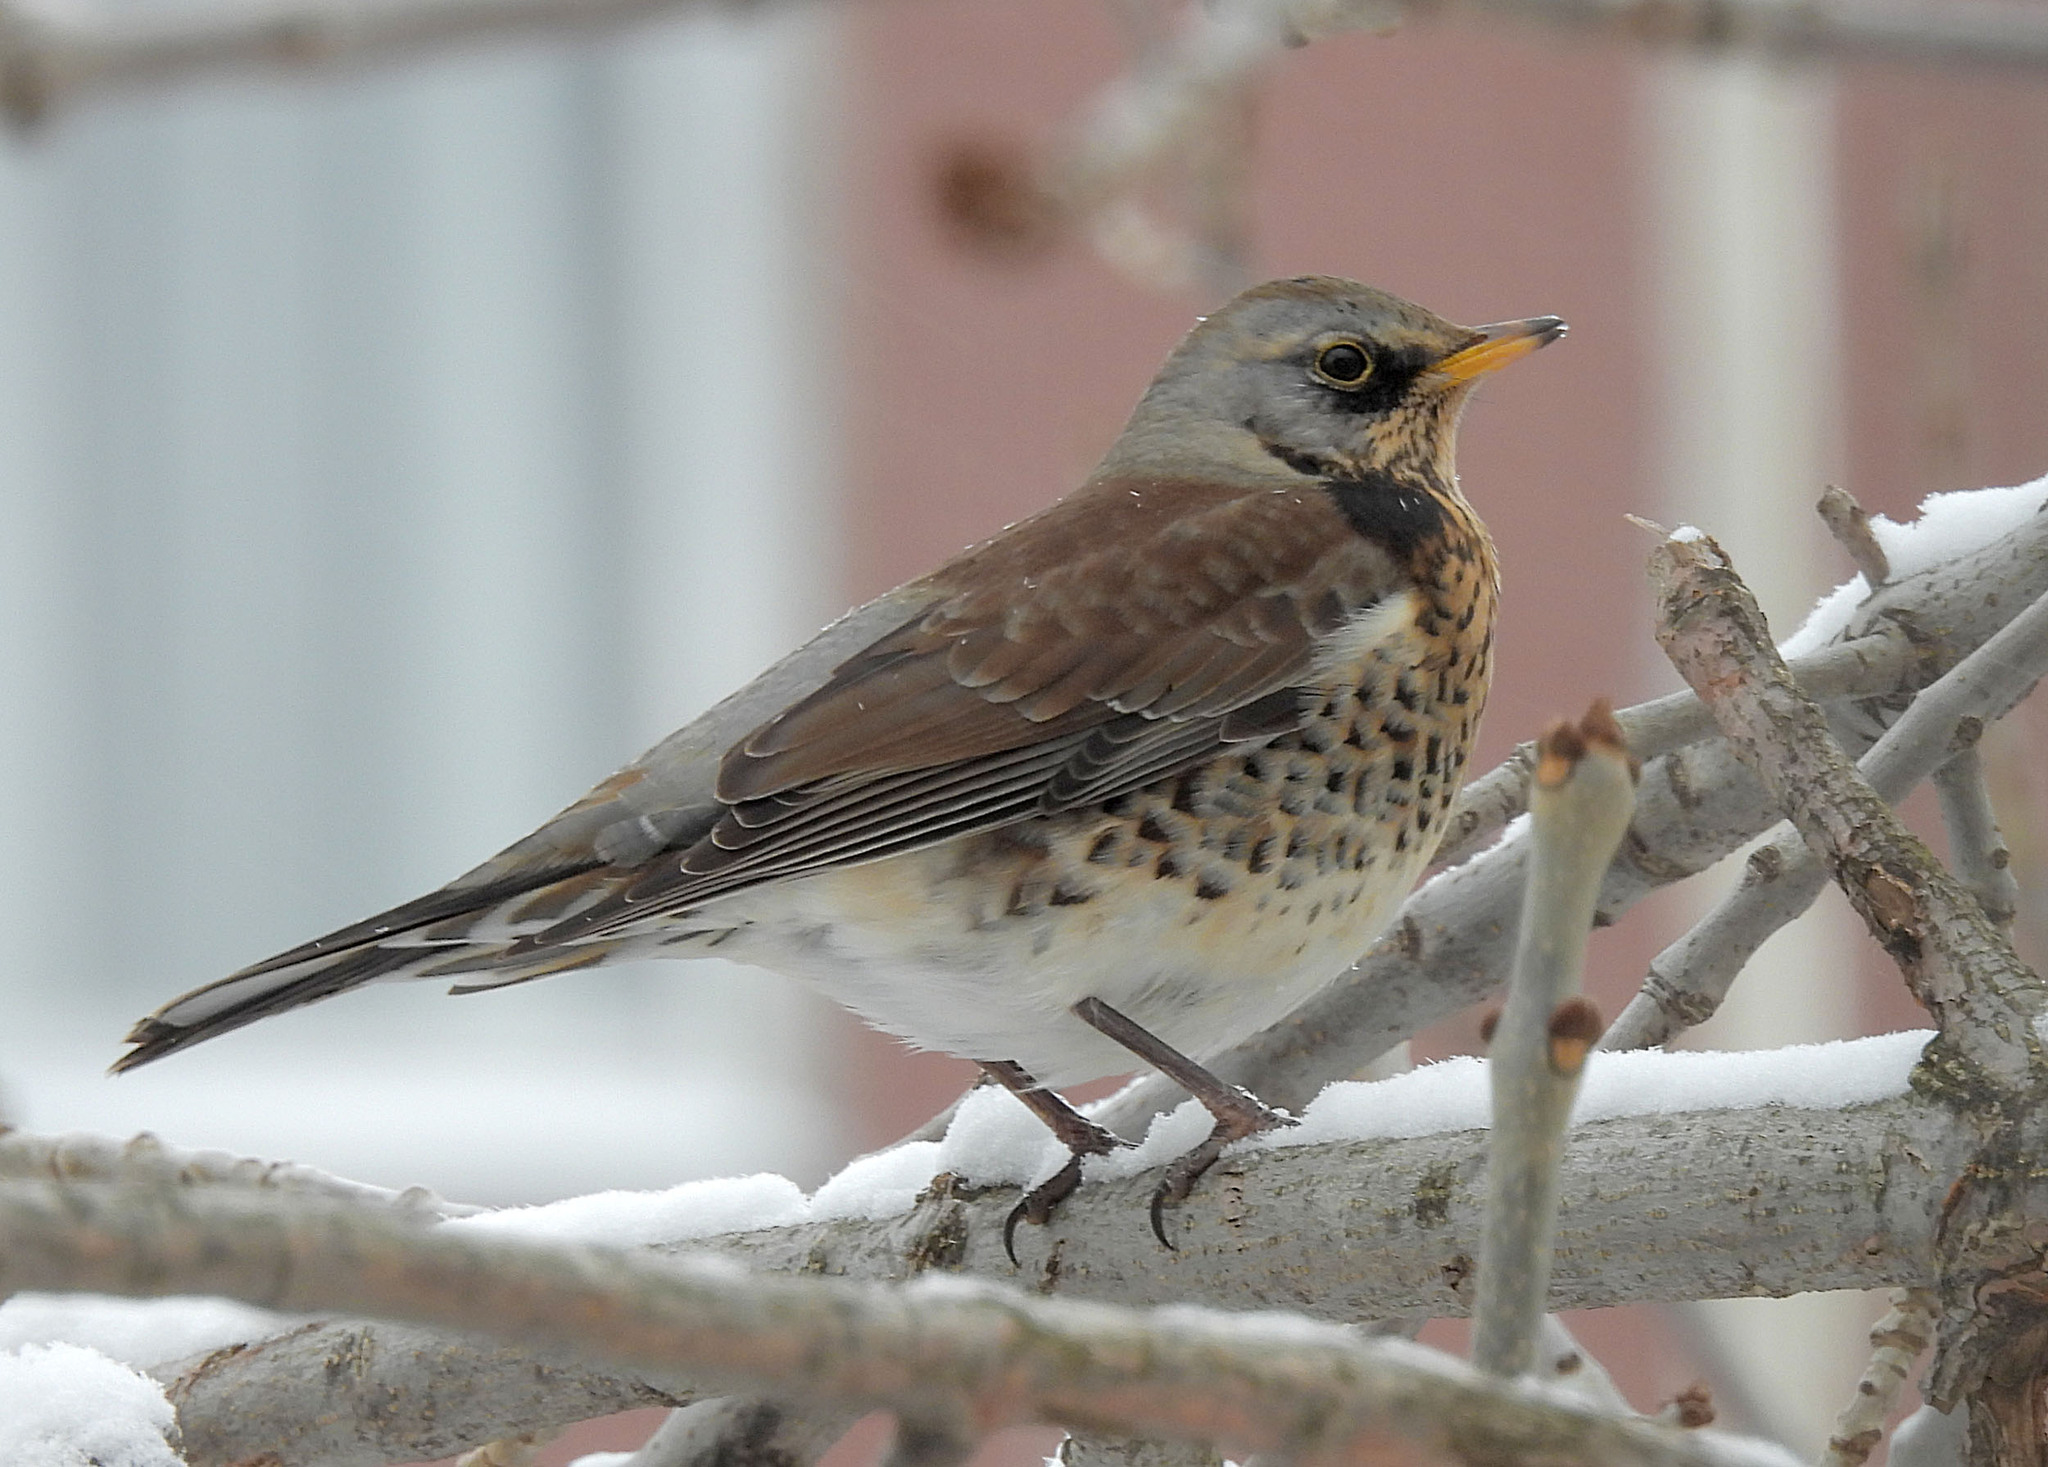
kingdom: Animalia
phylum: Chordata
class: Aves
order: Passeriformes
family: Turdidae
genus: Turdus
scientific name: Turdus pilaris
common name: Fieldfare
